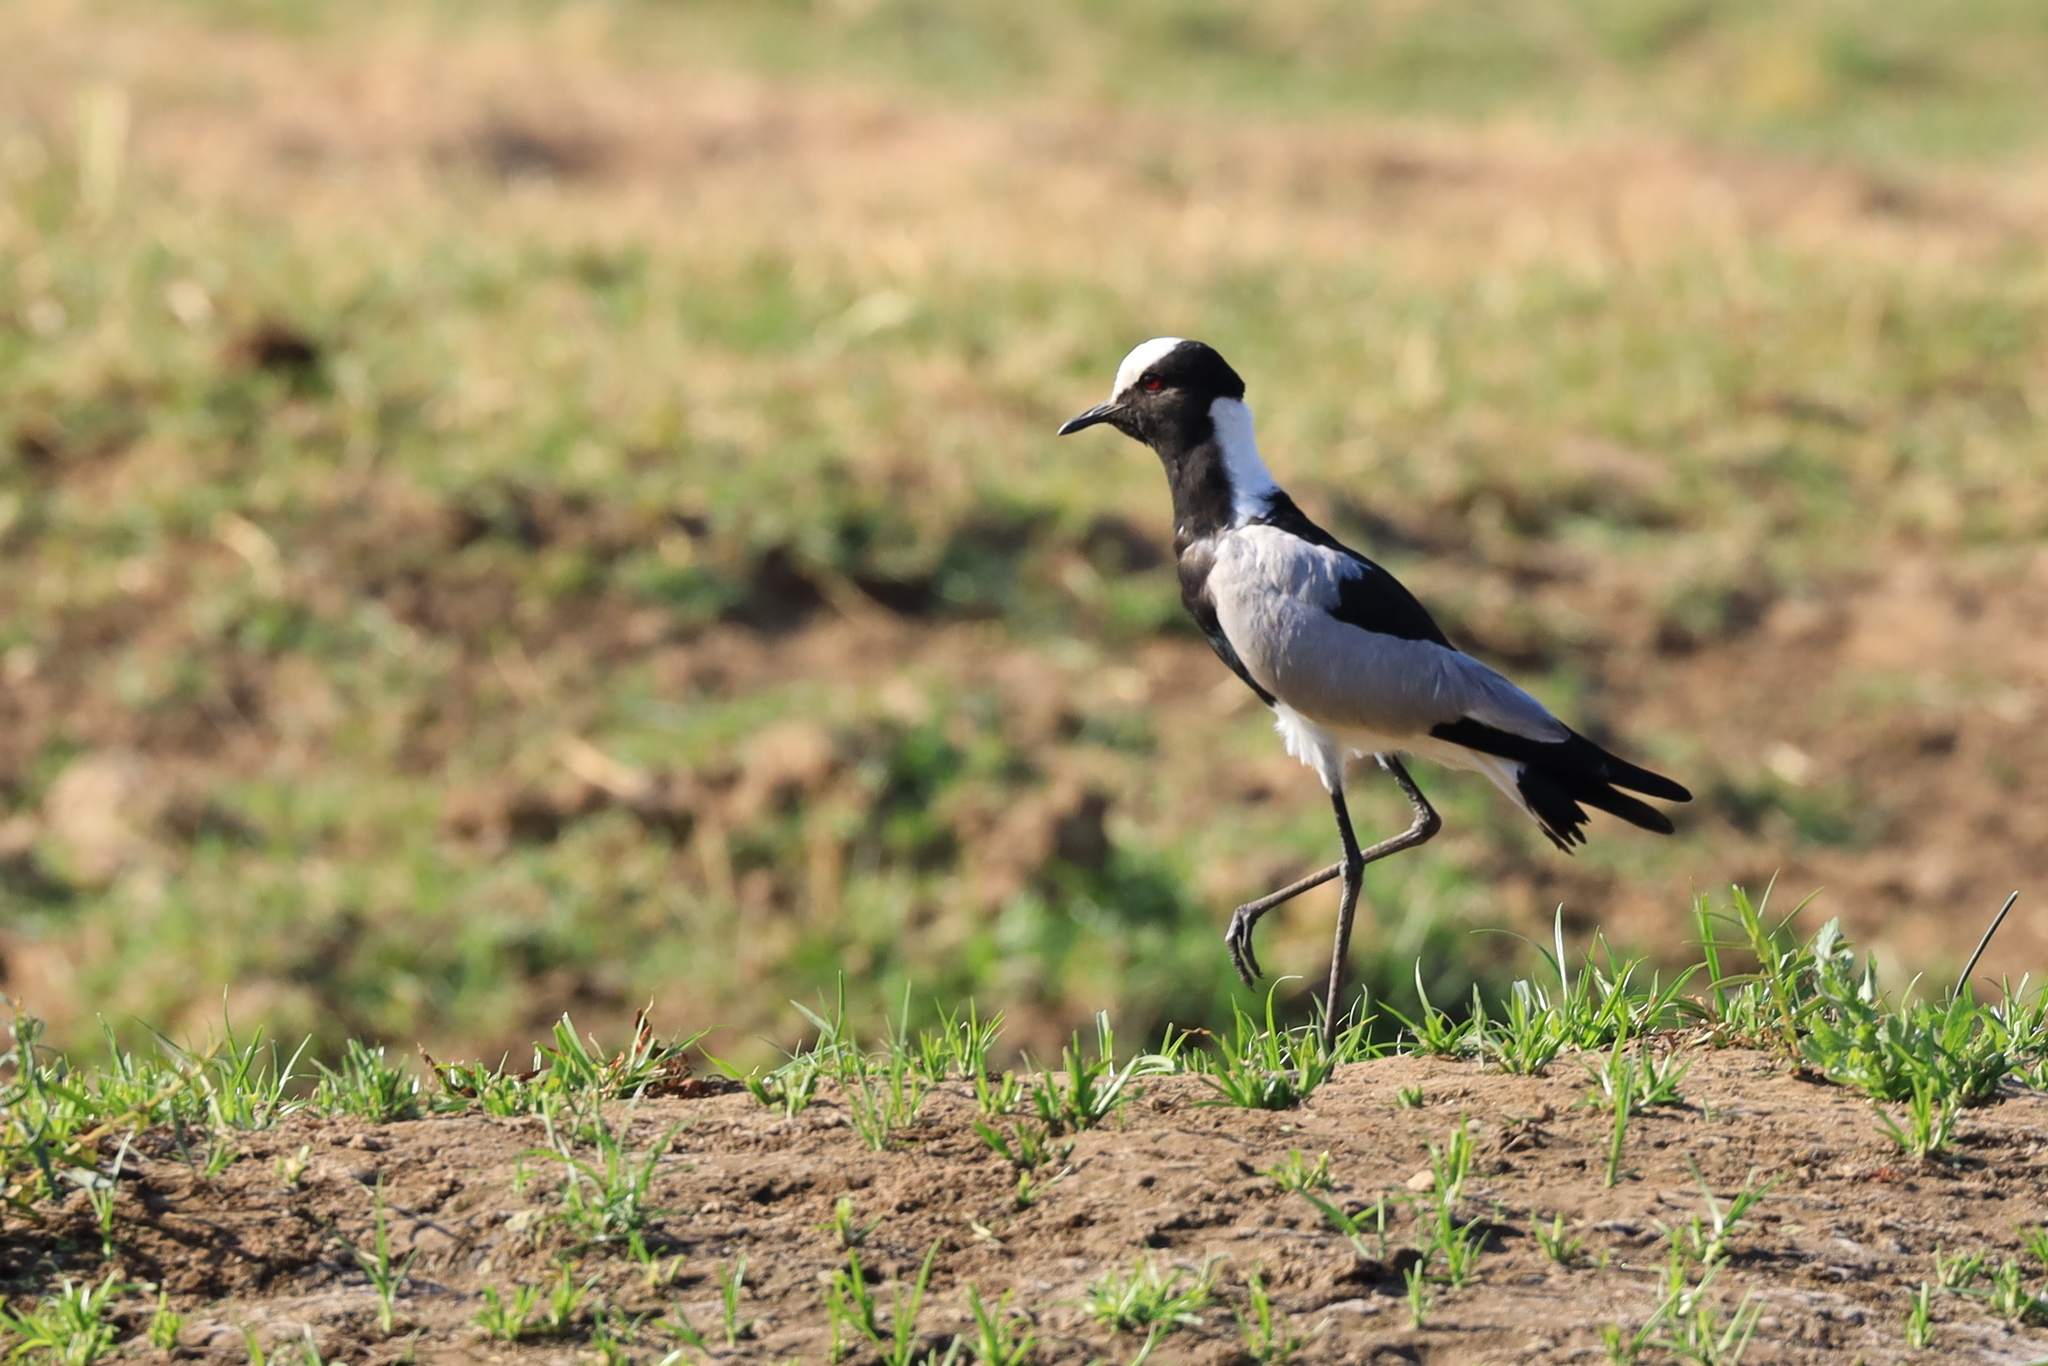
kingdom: Animalia
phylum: Chordata
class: Aves
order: Charadriiformes
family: Charadriidae
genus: Vanellus
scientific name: Vanellus armatus
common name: Blacksmith lapwing
